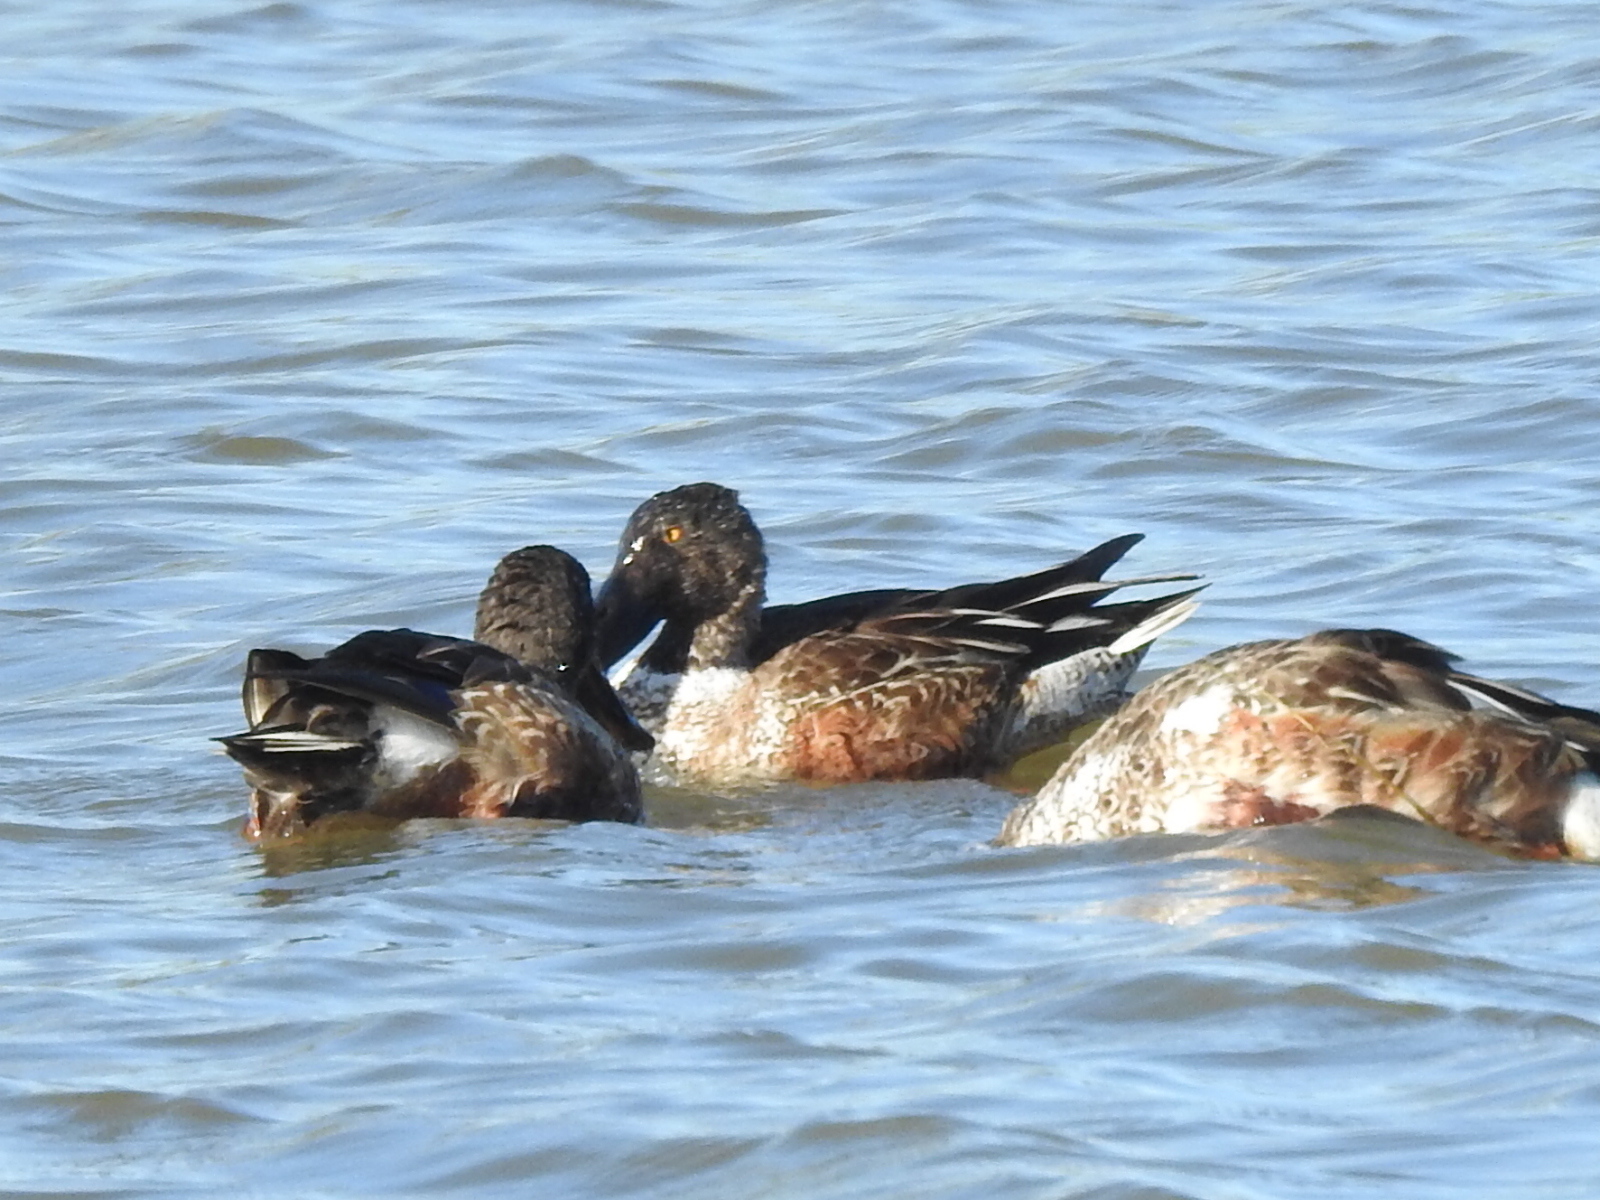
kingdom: Animalia
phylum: Chordata
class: Aves
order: Anseriformes
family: Anatidae
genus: Spatula
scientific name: Spatula clypeata
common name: Northern shoveler
